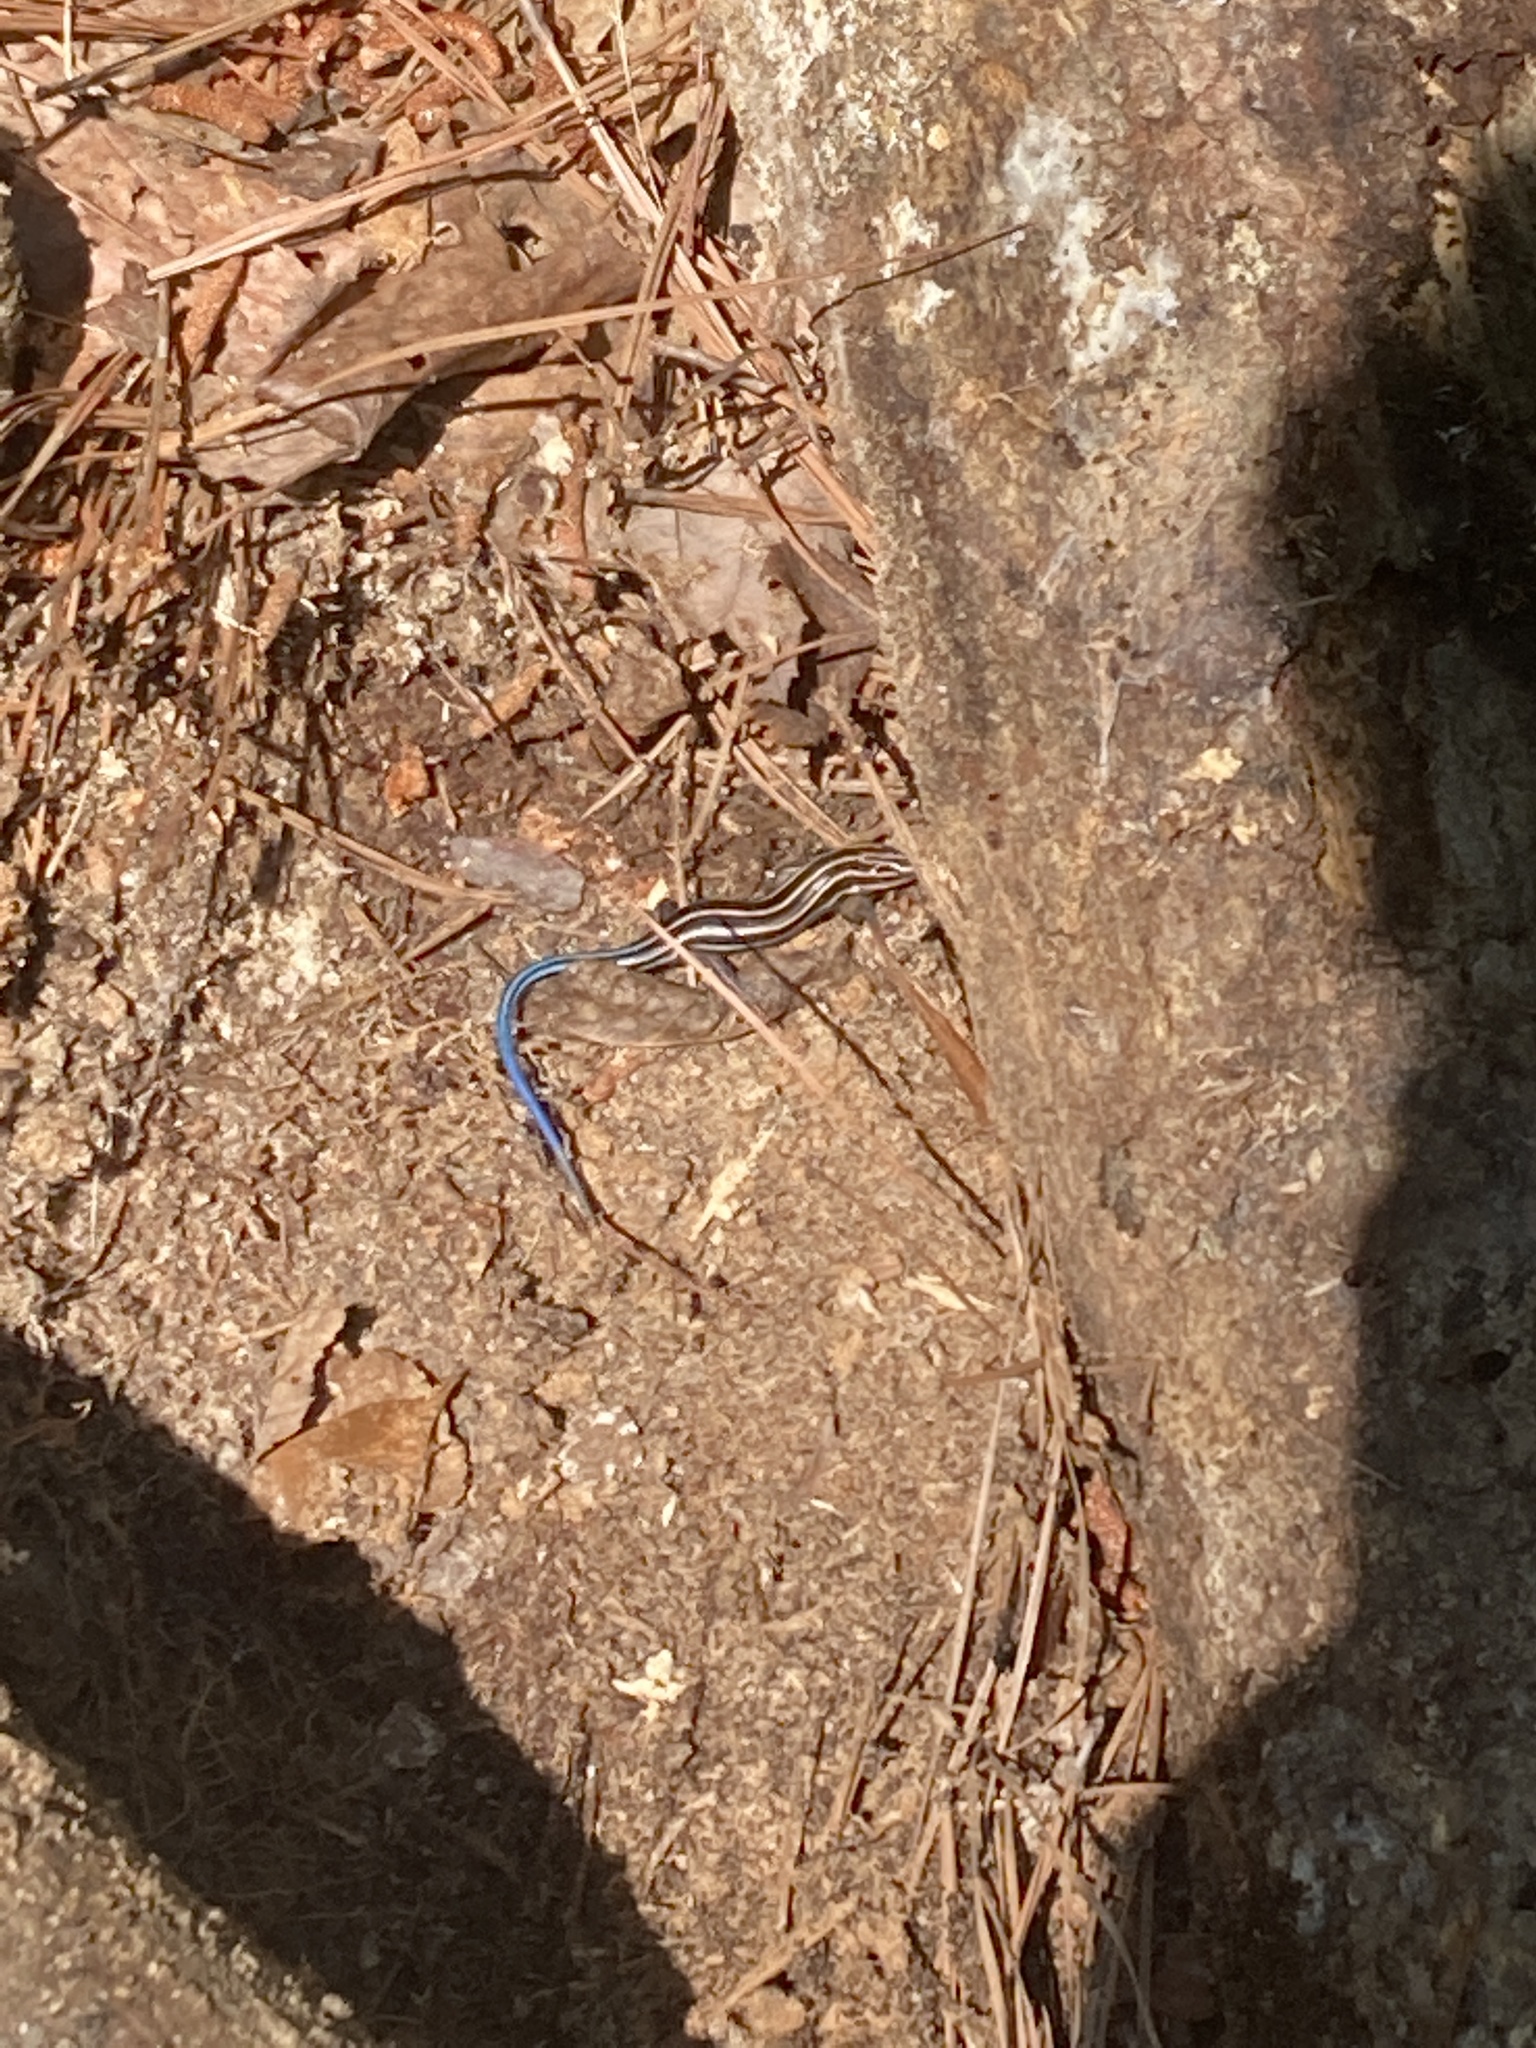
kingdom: Animalia
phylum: Chordata
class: Squamata
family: Scincidae
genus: Plestiodon
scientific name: Plestiodon fasciatus
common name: Five-lined skink
